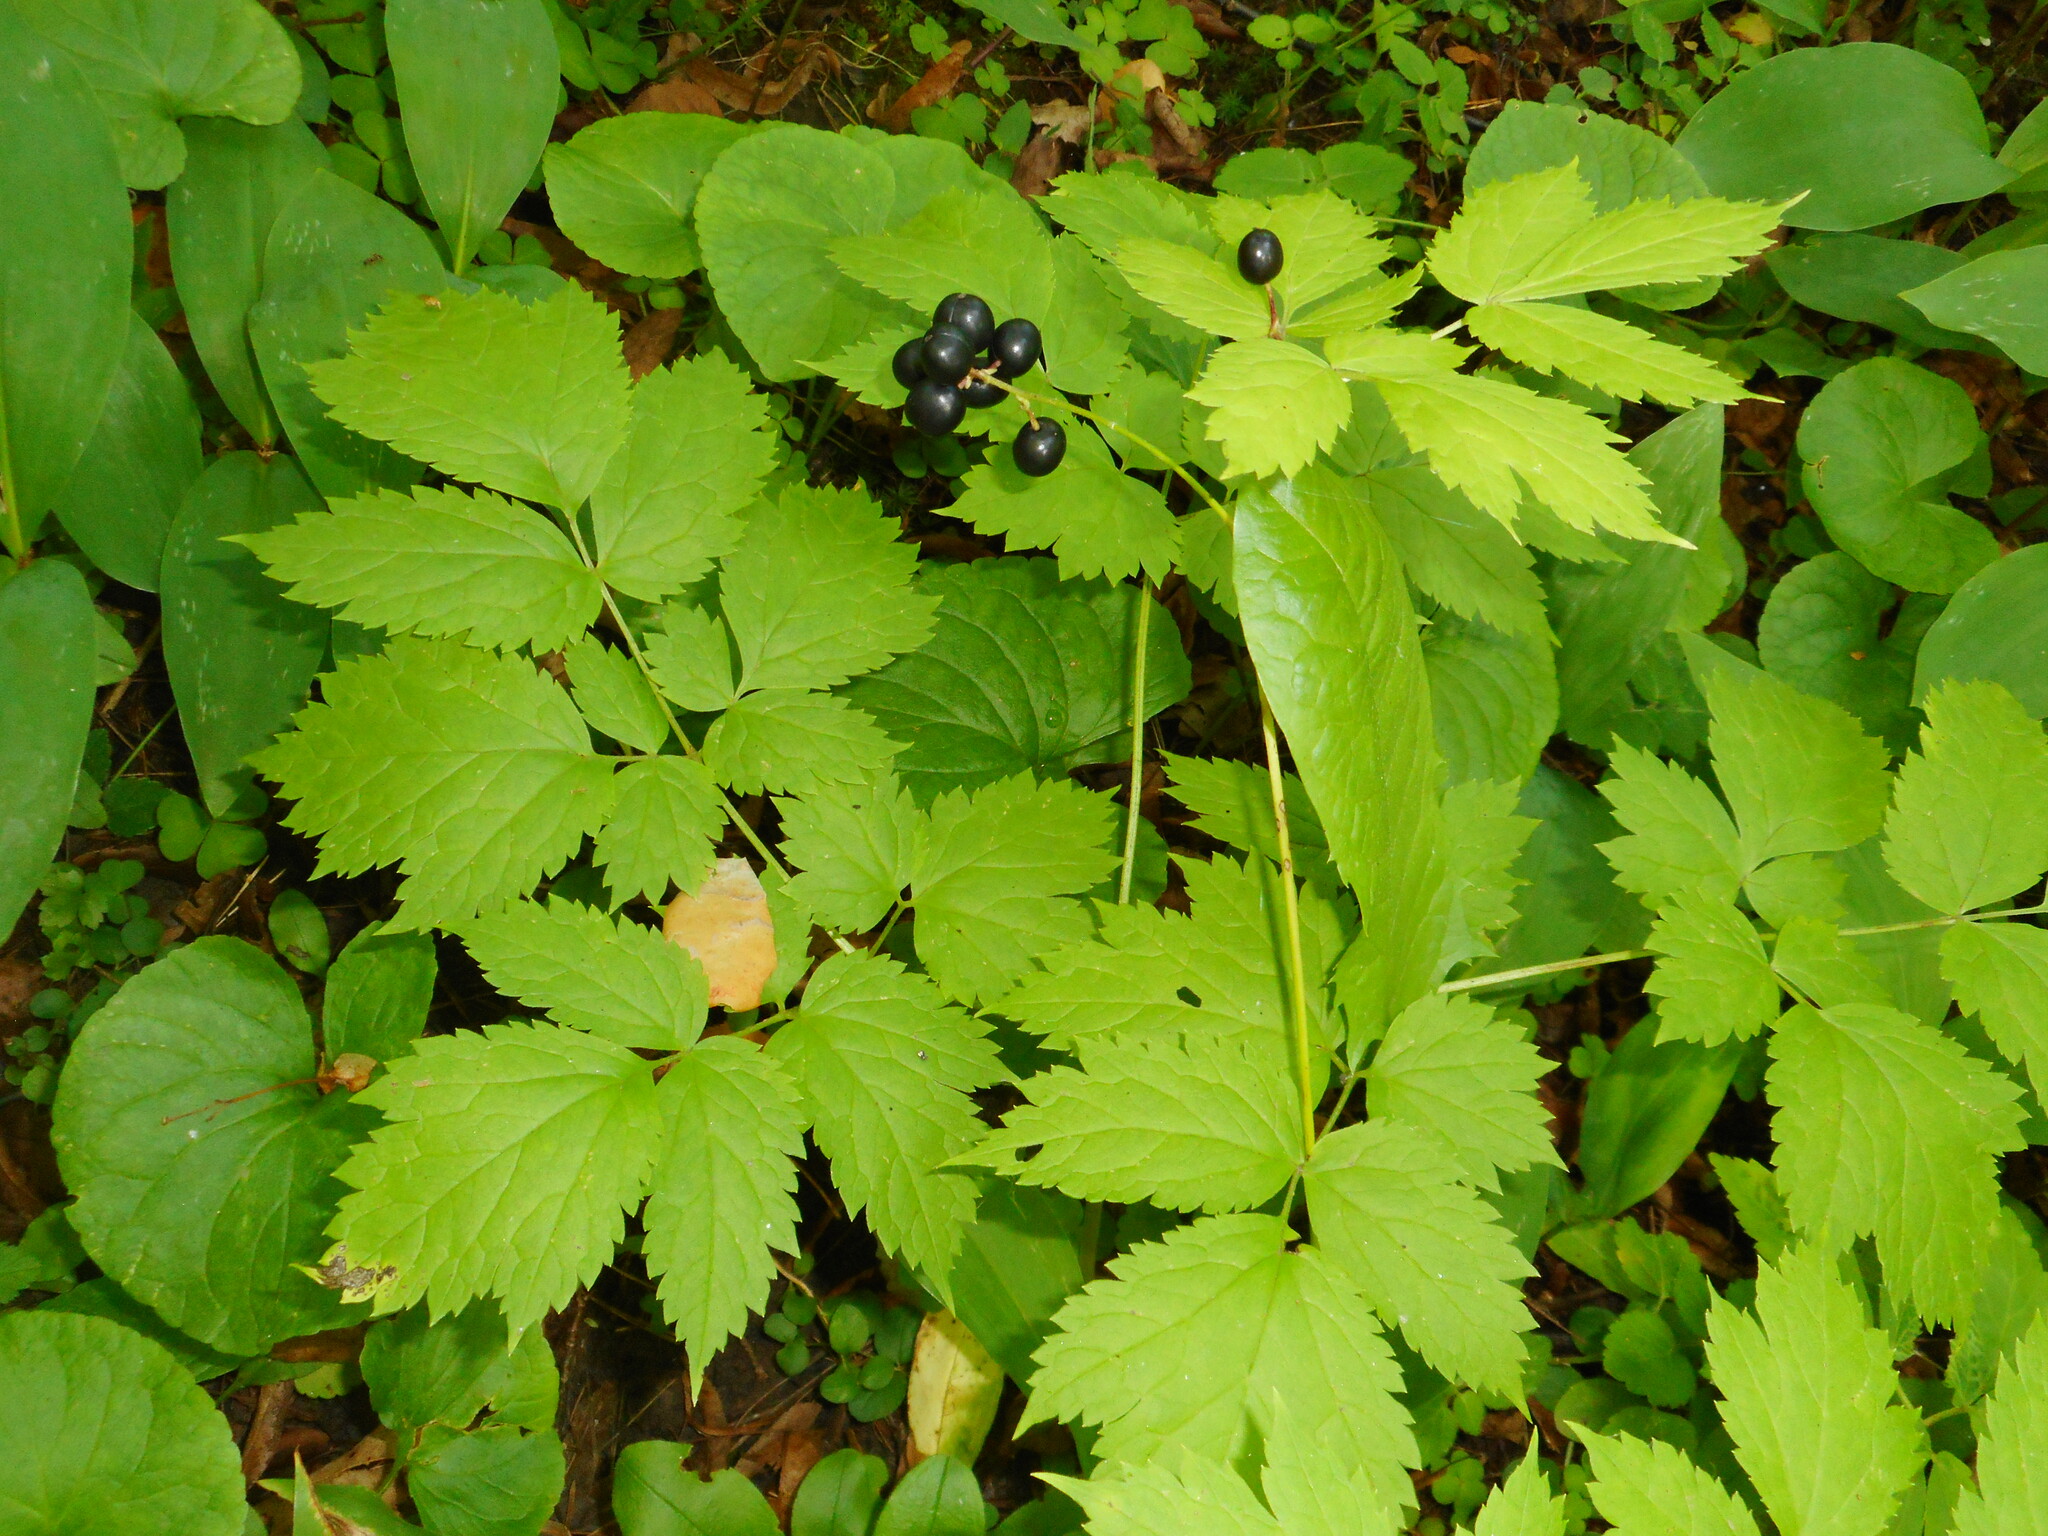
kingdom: Plantae
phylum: Tracheophyta
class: Magnoliopsida
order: Ranunculales
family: Ranunculaceae
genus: Actaea
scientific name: Actaea spicata
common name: Baneberry
